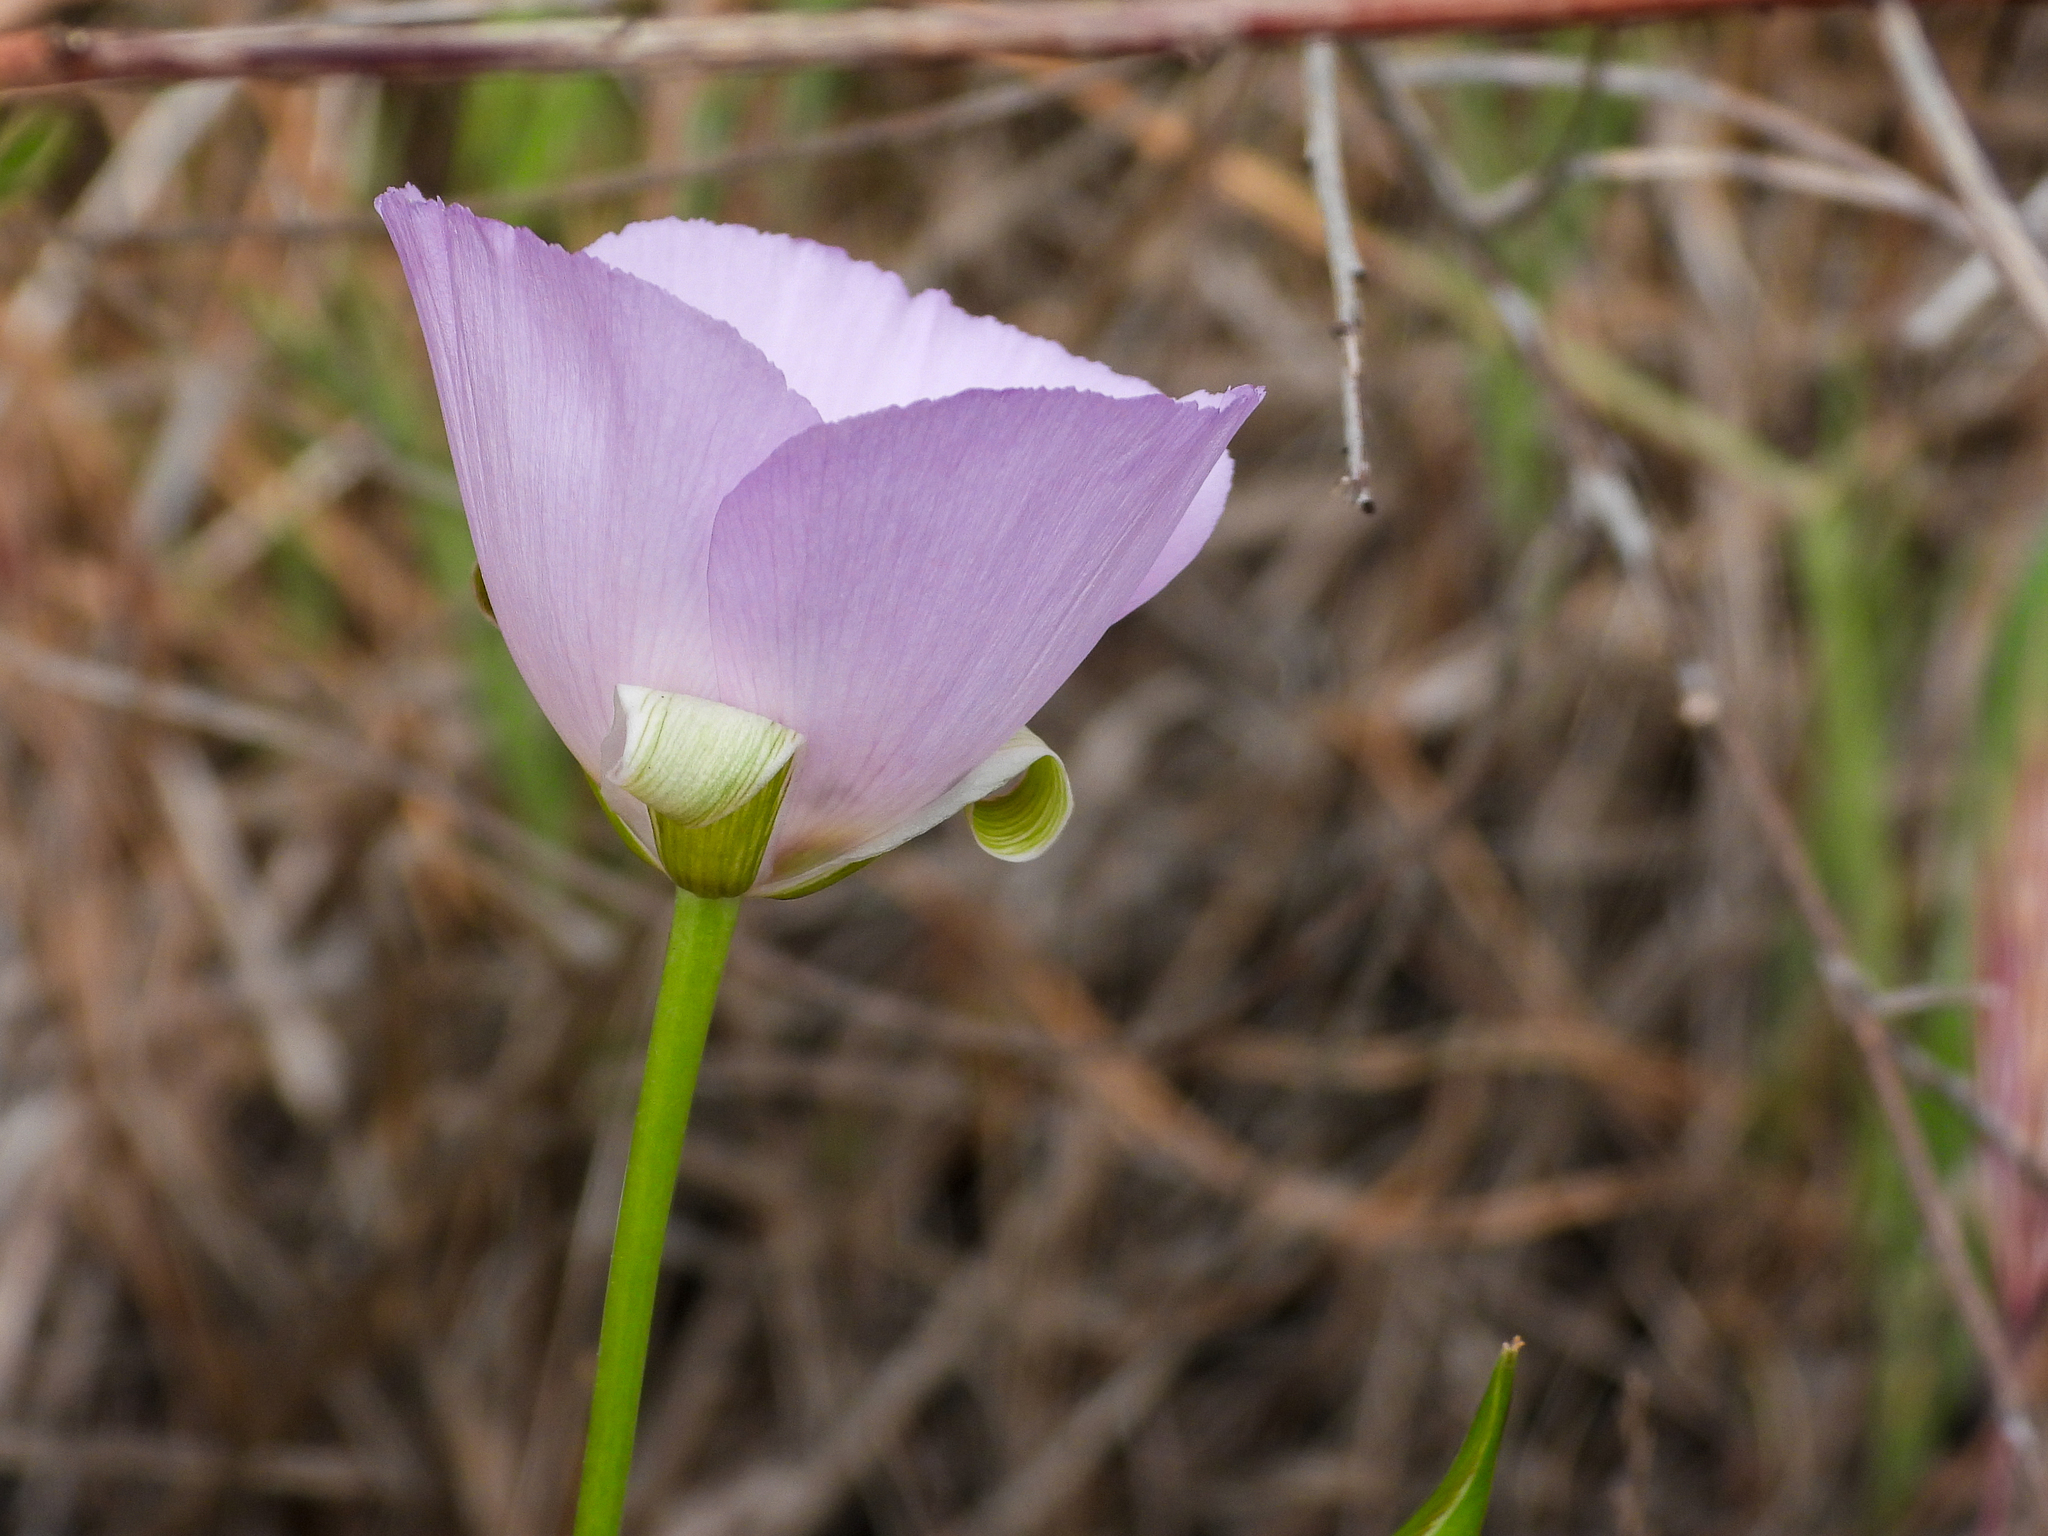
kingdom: Plantae
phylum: Tracheophyta
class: Liliopsida
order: Liliales
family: Liliaceae
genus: Calochortus
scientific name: Calochortus splendens
